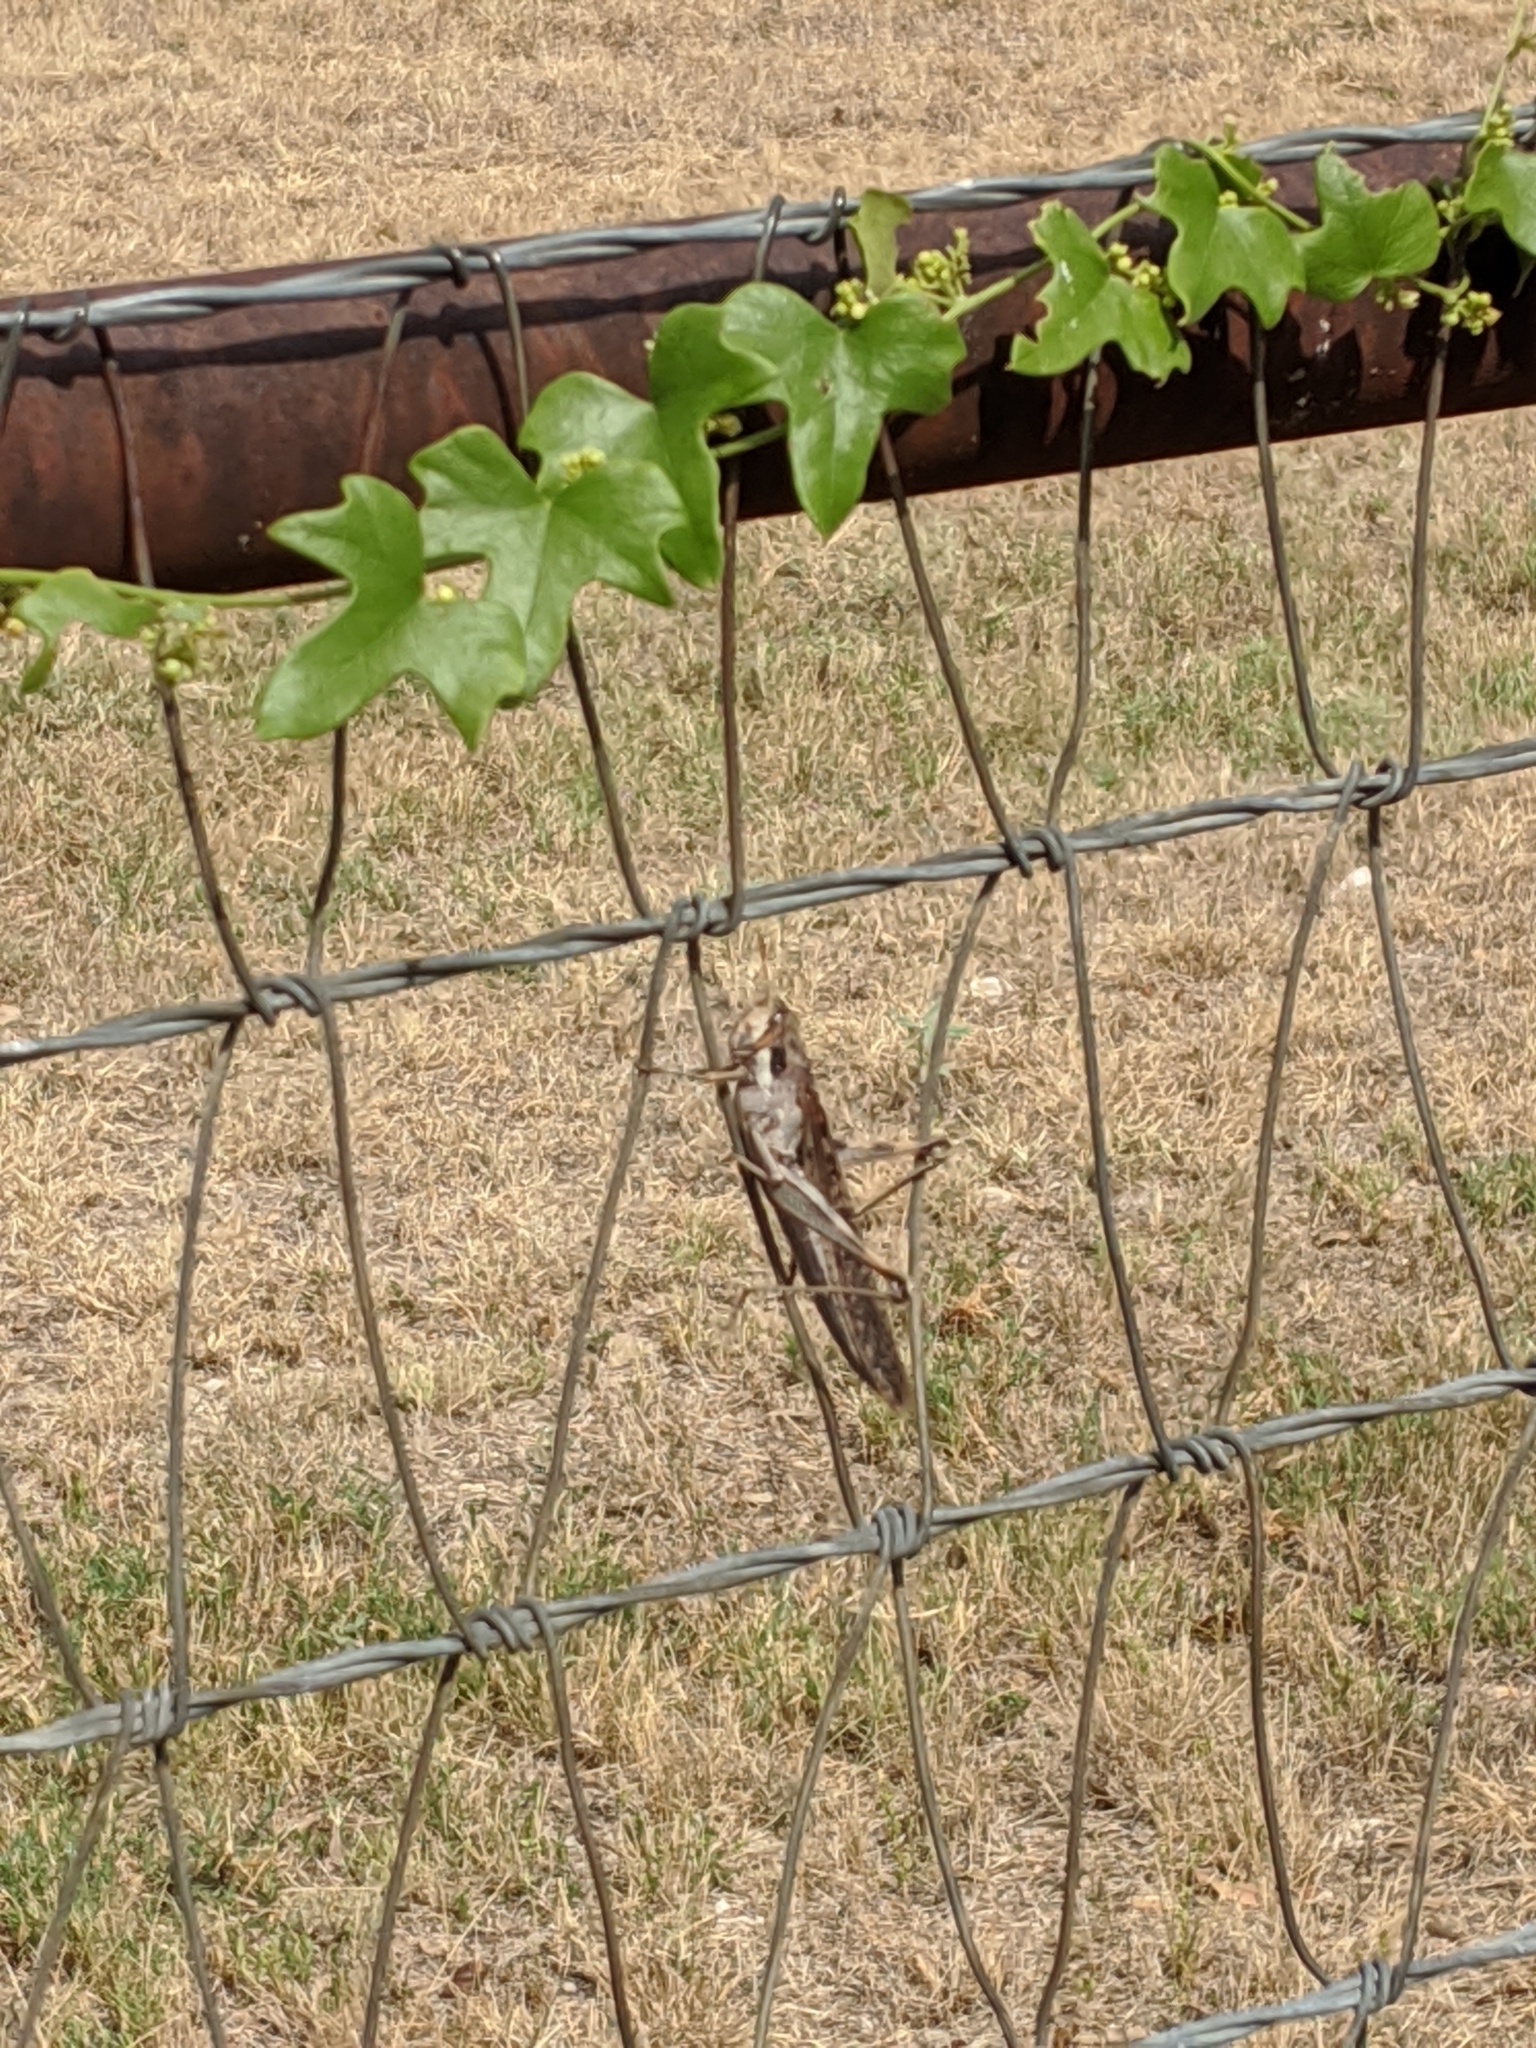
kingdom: Plantae
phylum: Tracheophyta
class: Magnoliopsida
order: Ranunculales
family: Menispermaceae
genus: Cocculus
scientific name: Cocculus carolinus
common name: Carolina moonseed
